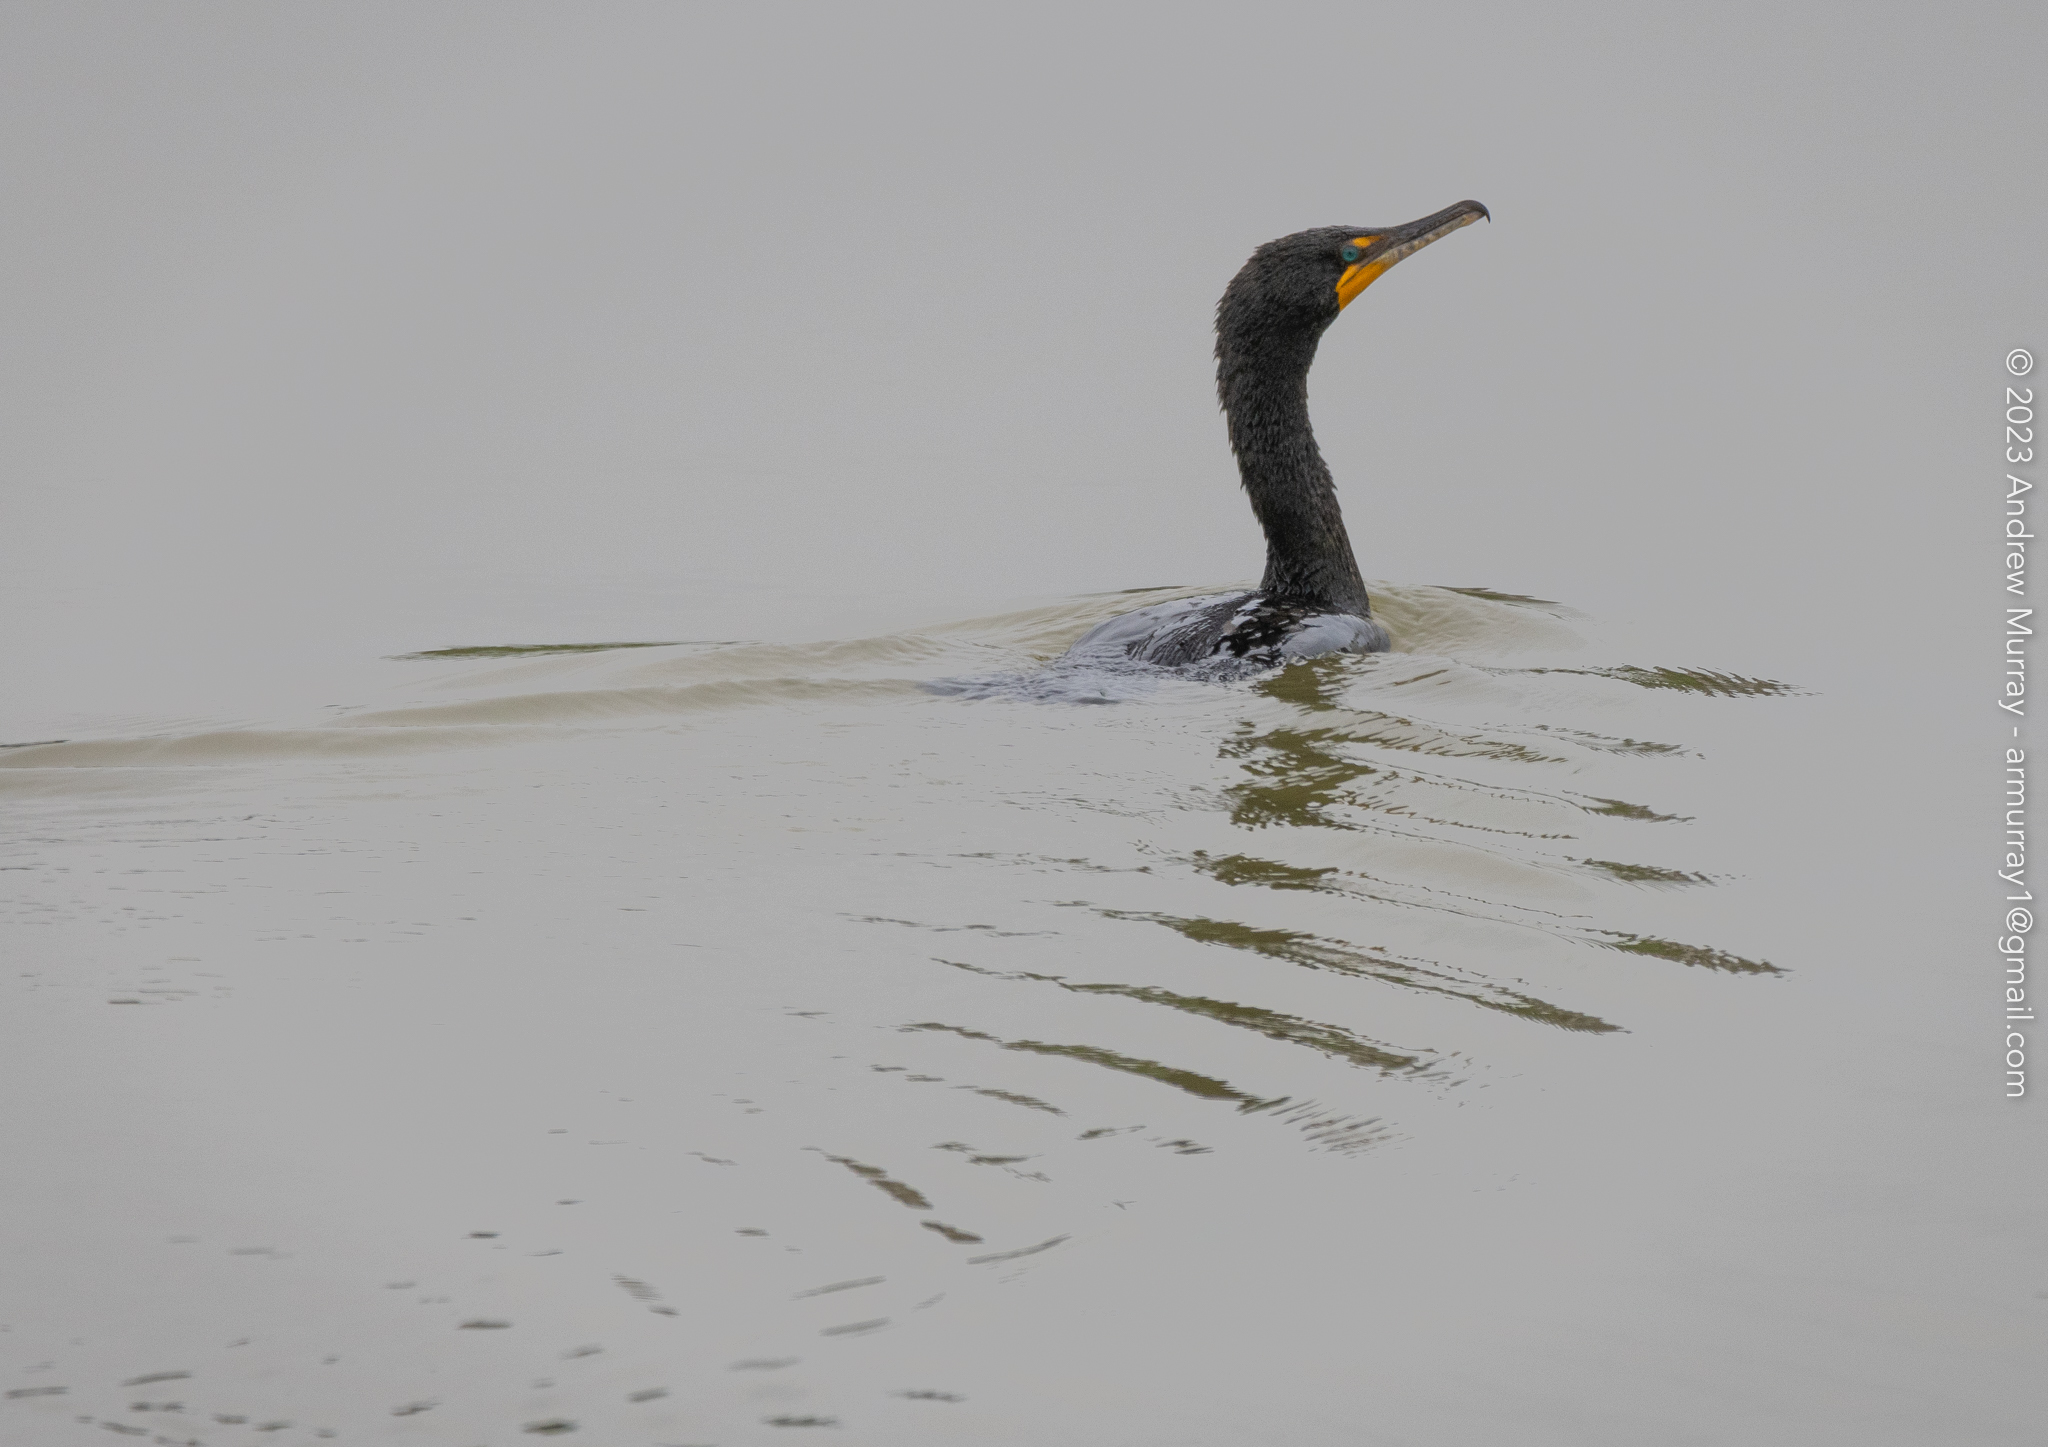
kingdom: Animalia
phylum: Chordata
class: Aves
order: Suliformes
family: Phalacrocoracidae
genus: Phalacrocorax
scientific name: Phalacrocorax auritus
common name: Double-crested cormorant
